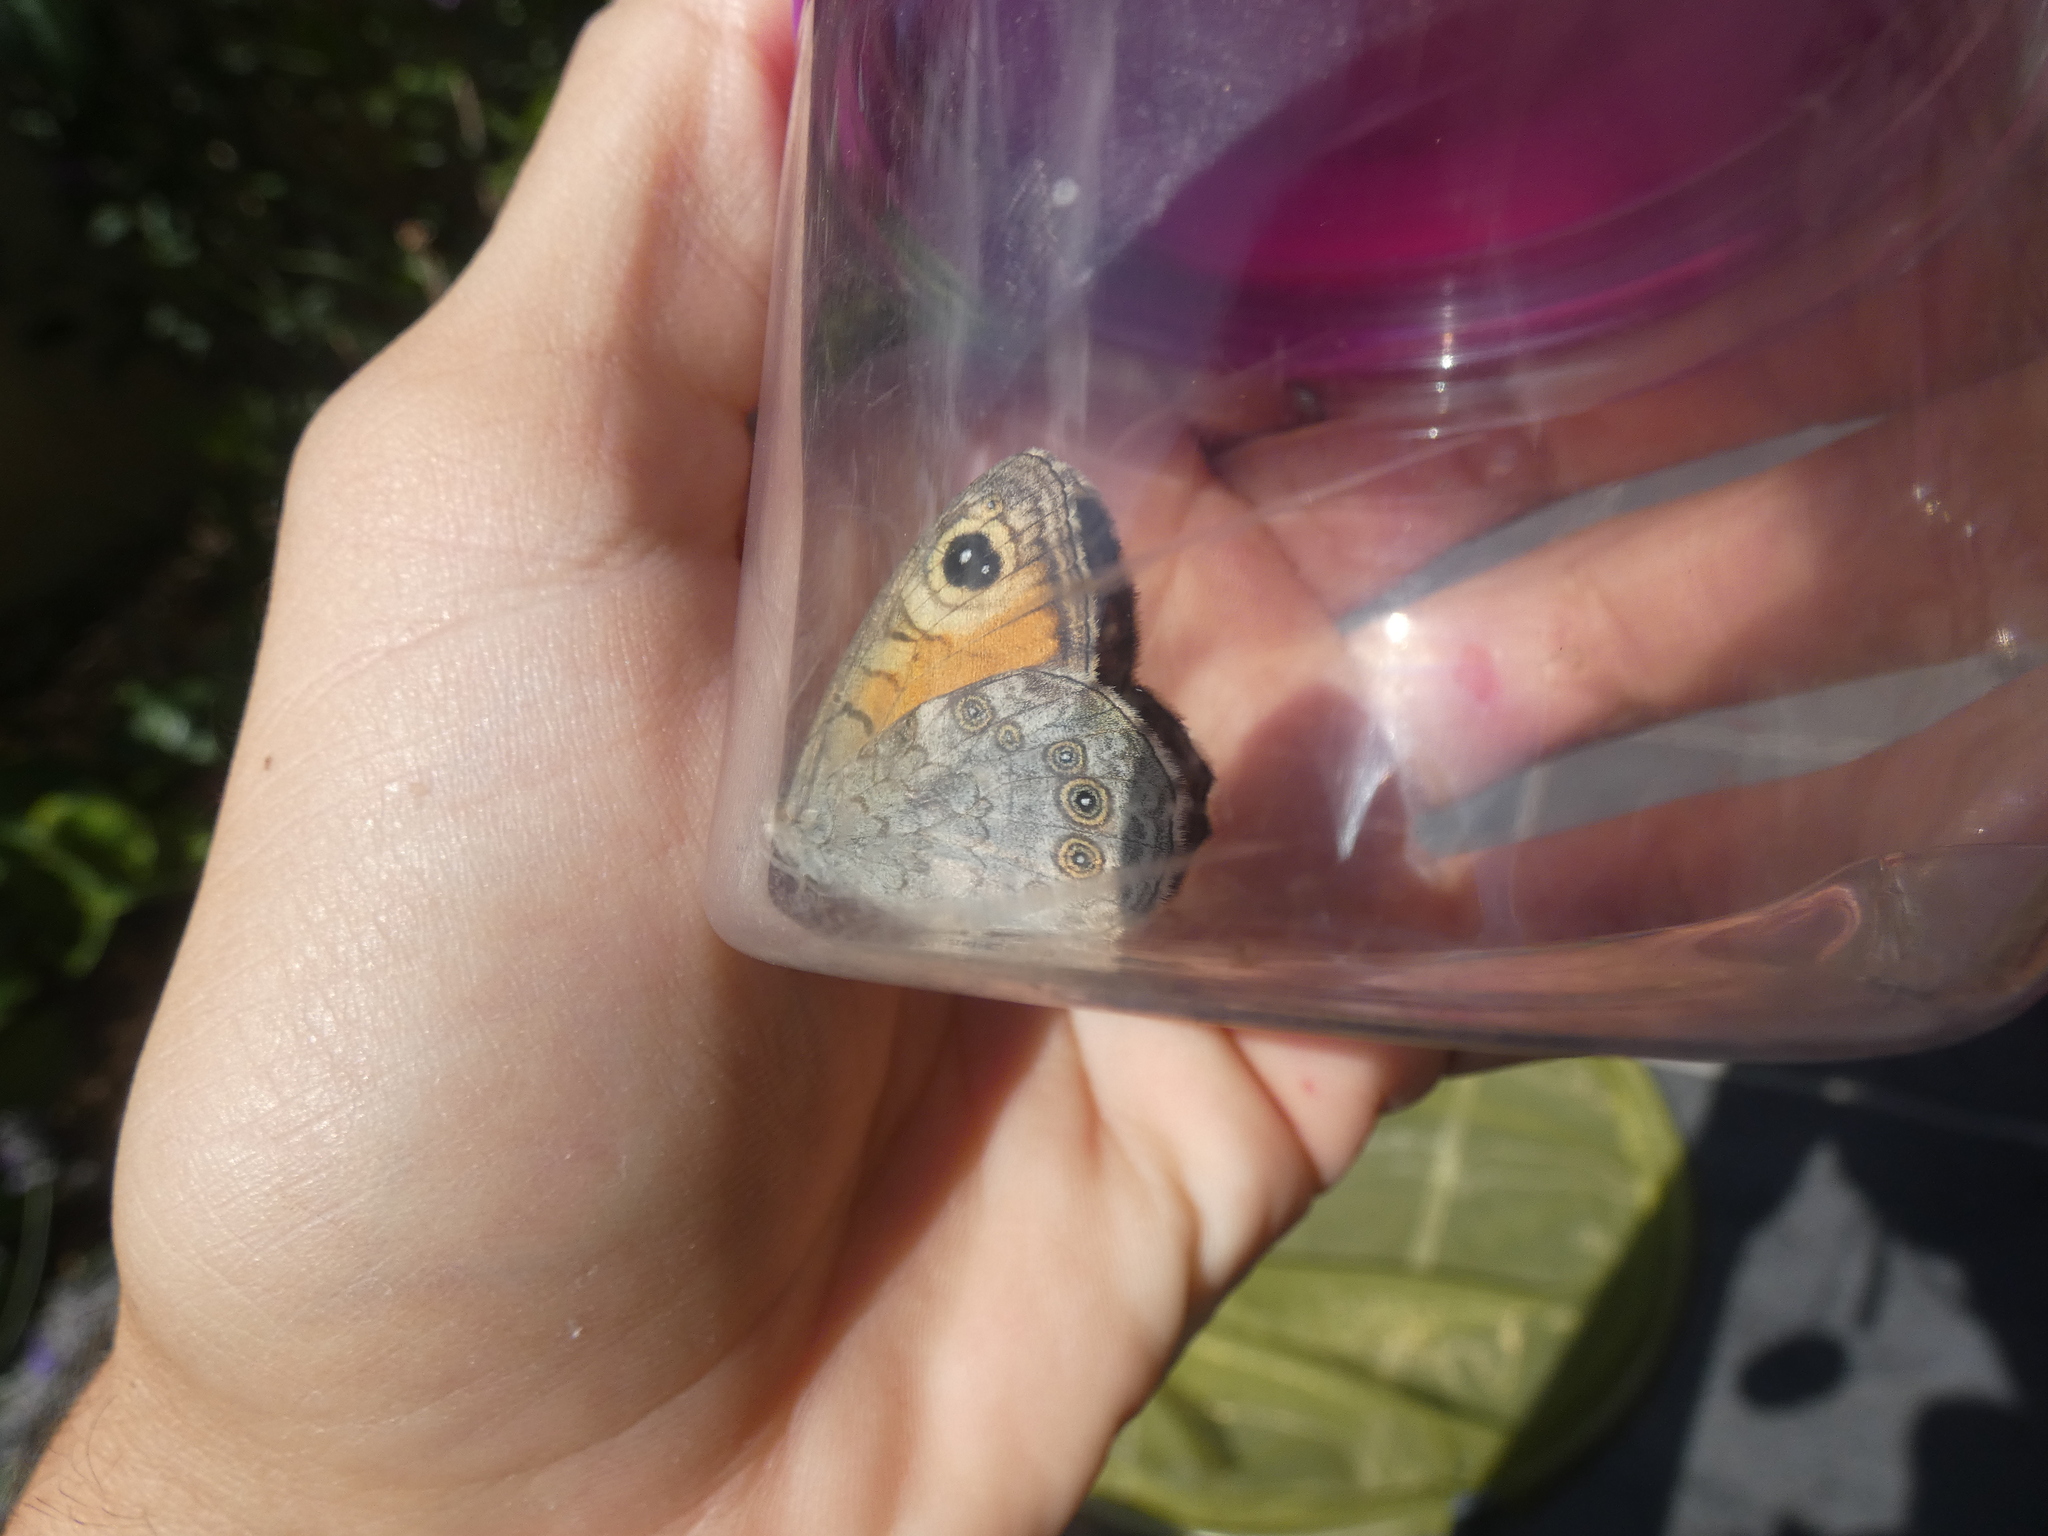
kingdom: Animalia
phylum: Arthropoda
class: Insecta
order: Lepidoptera
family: Nymphalidae
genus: Pararge
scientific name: Pararge Lasiommata maera
